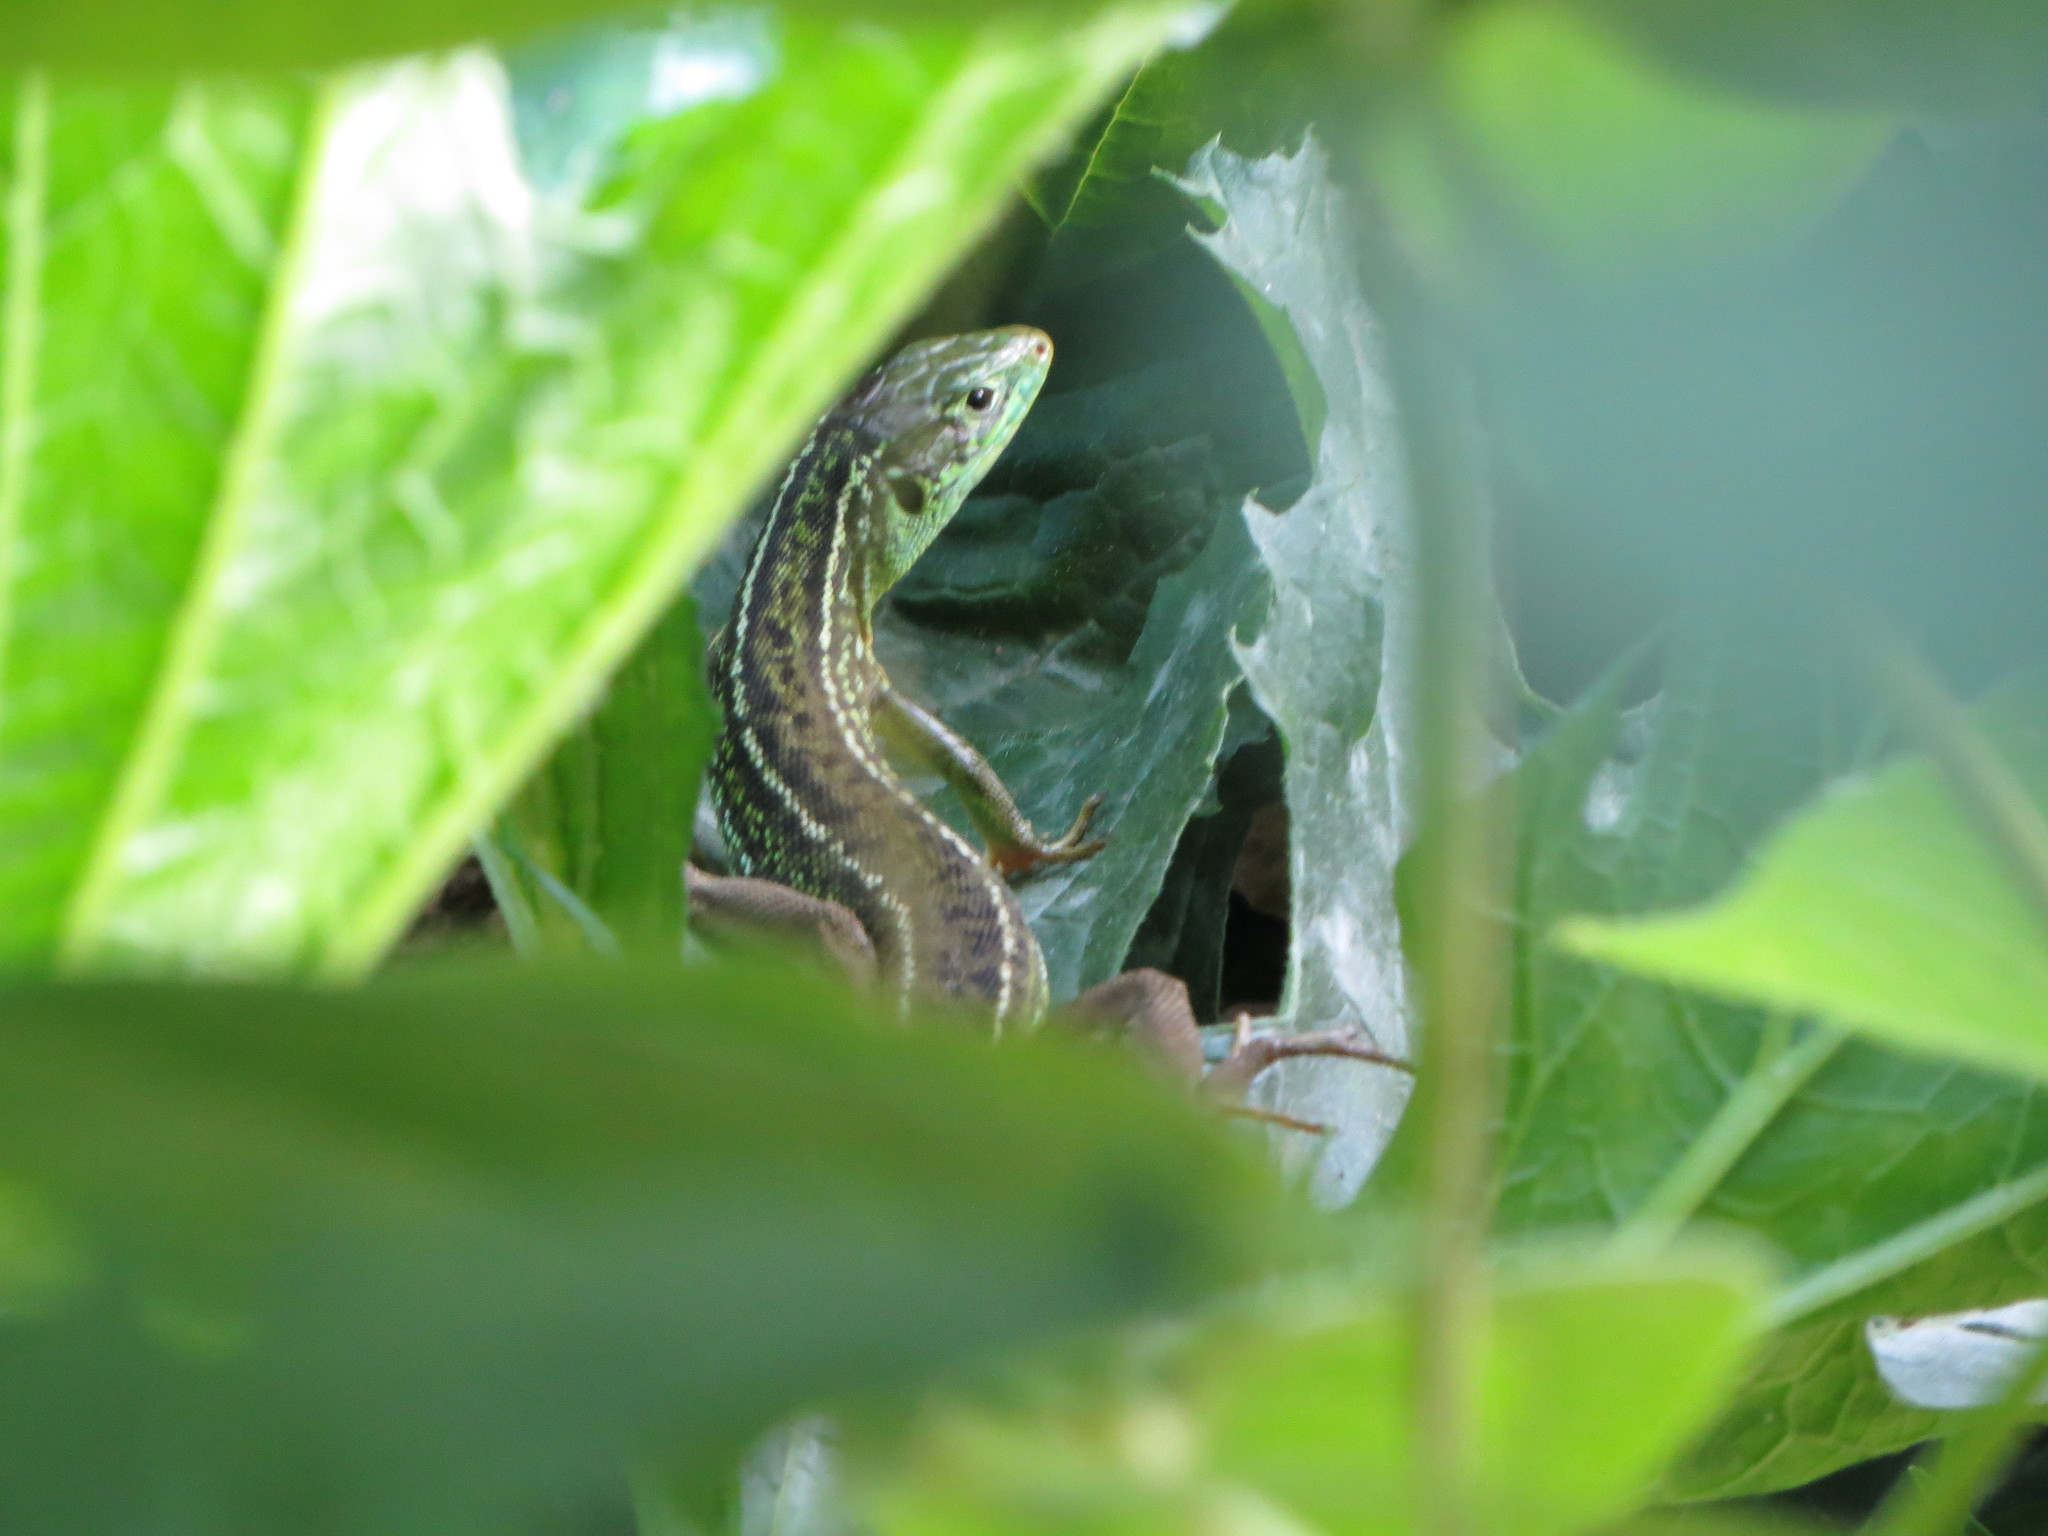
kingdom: Animalia
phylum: Chordata
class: Squamata
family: Lacertidae
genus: Lacerta
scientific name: Lacerta bilineata
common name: Western green lizard
